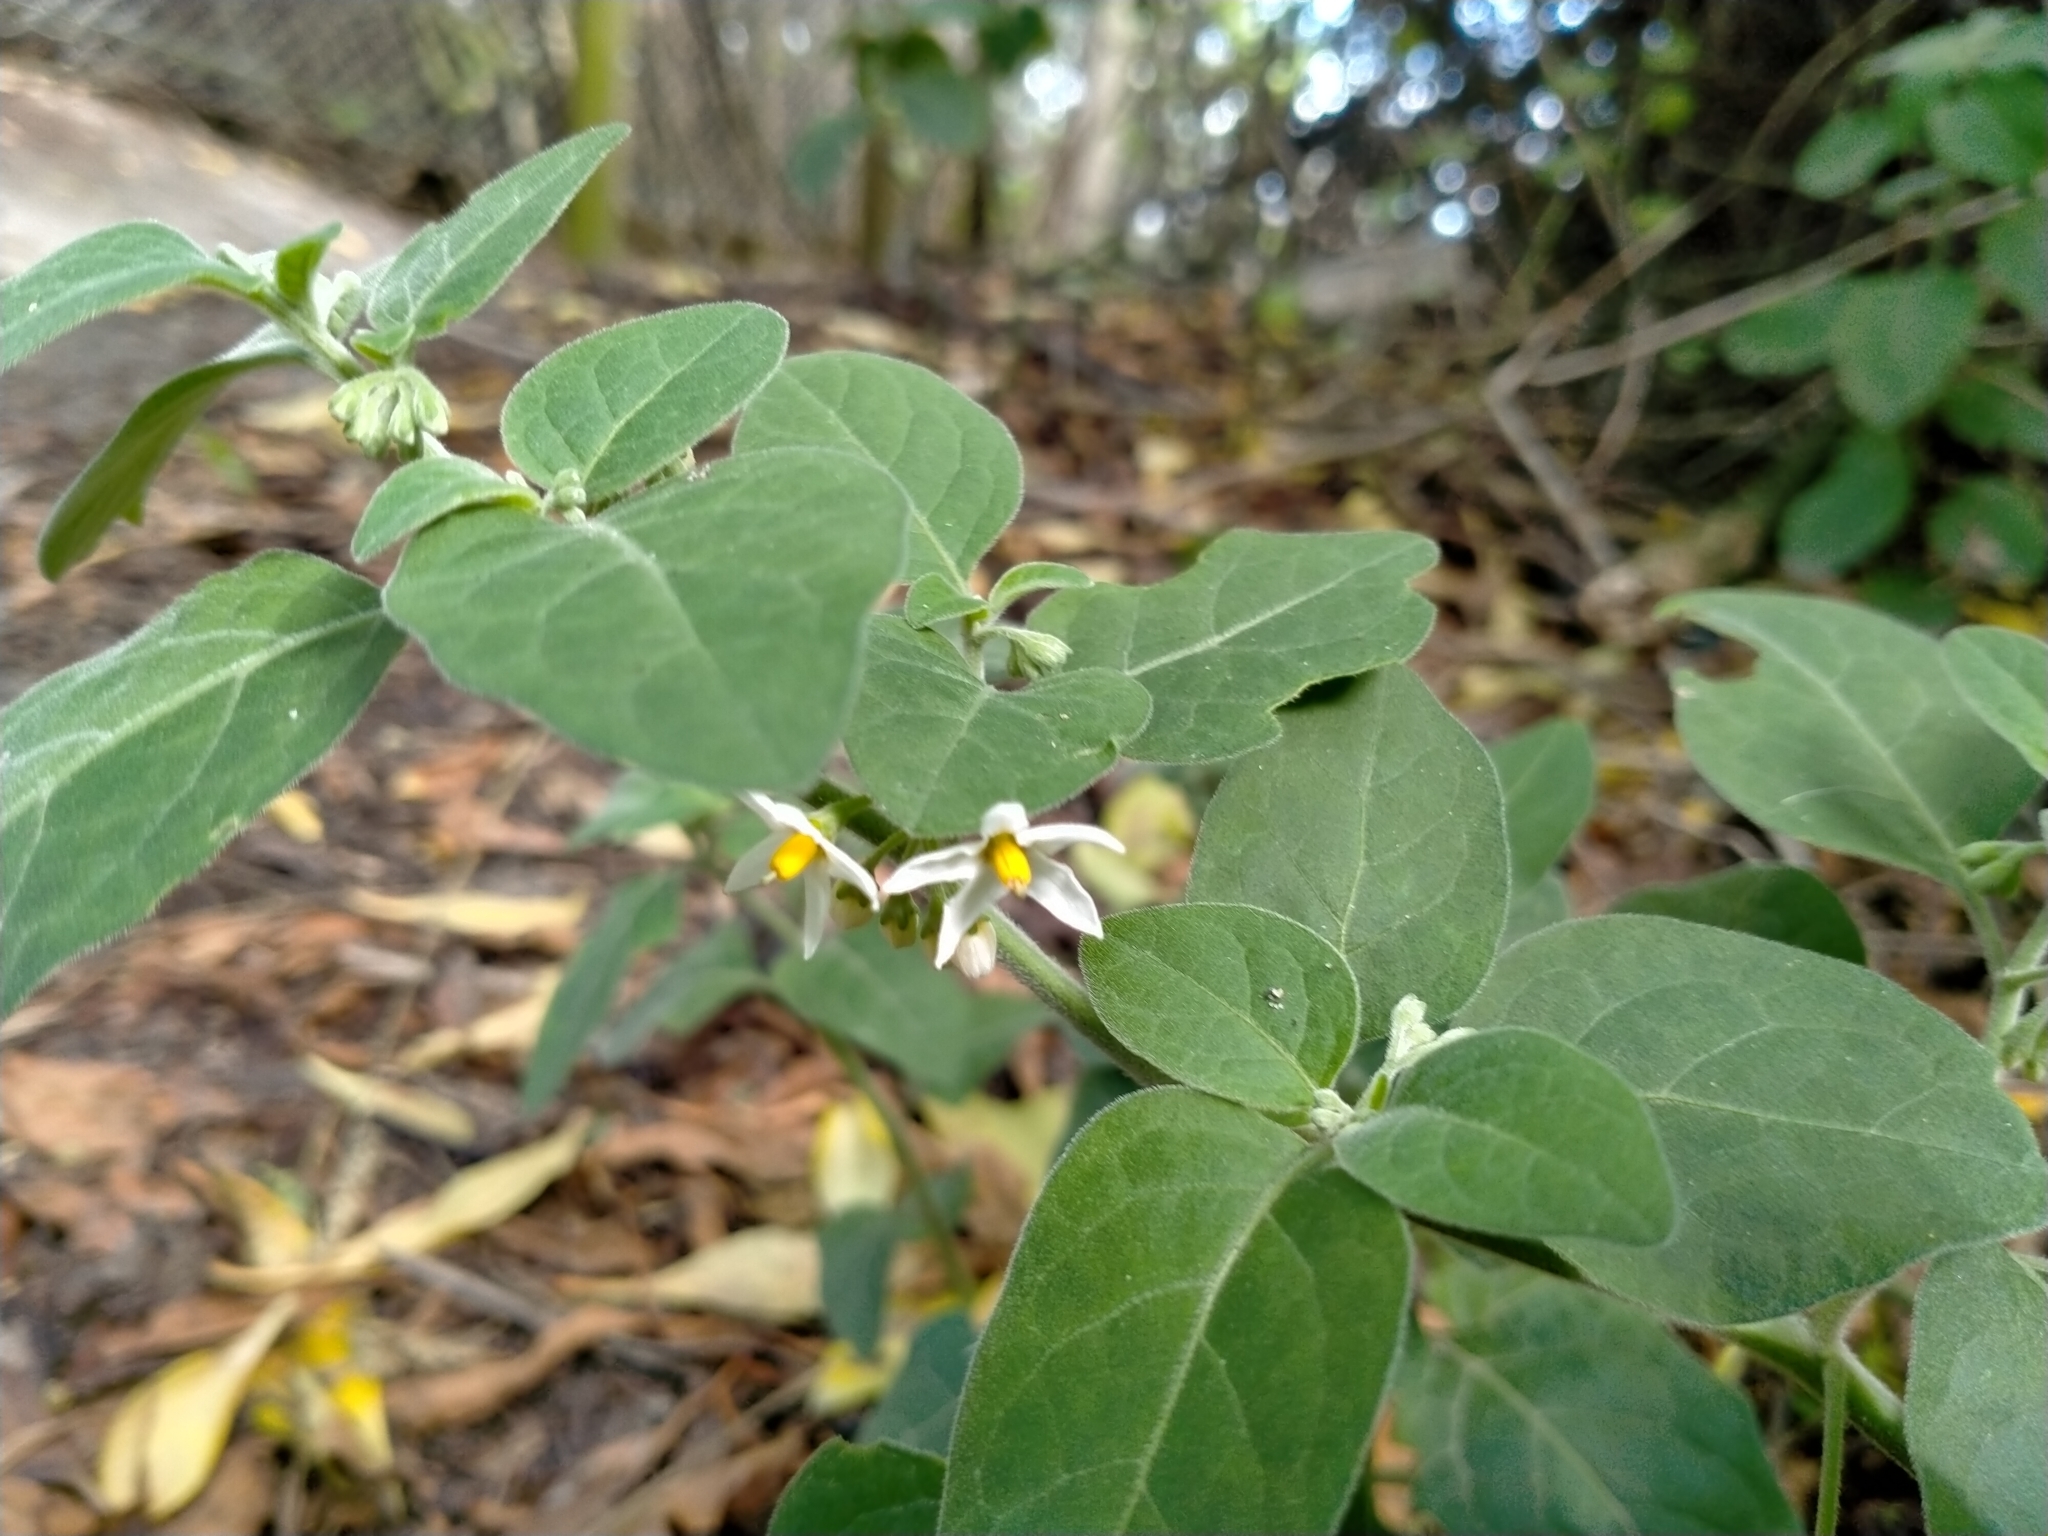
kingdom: Plantae
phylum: Tracheophyta
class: Magnoliopsida
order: Solanales
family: Solanaceae
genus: Solanum
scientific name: Solanum chenopodioides
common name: Tall nightshade
